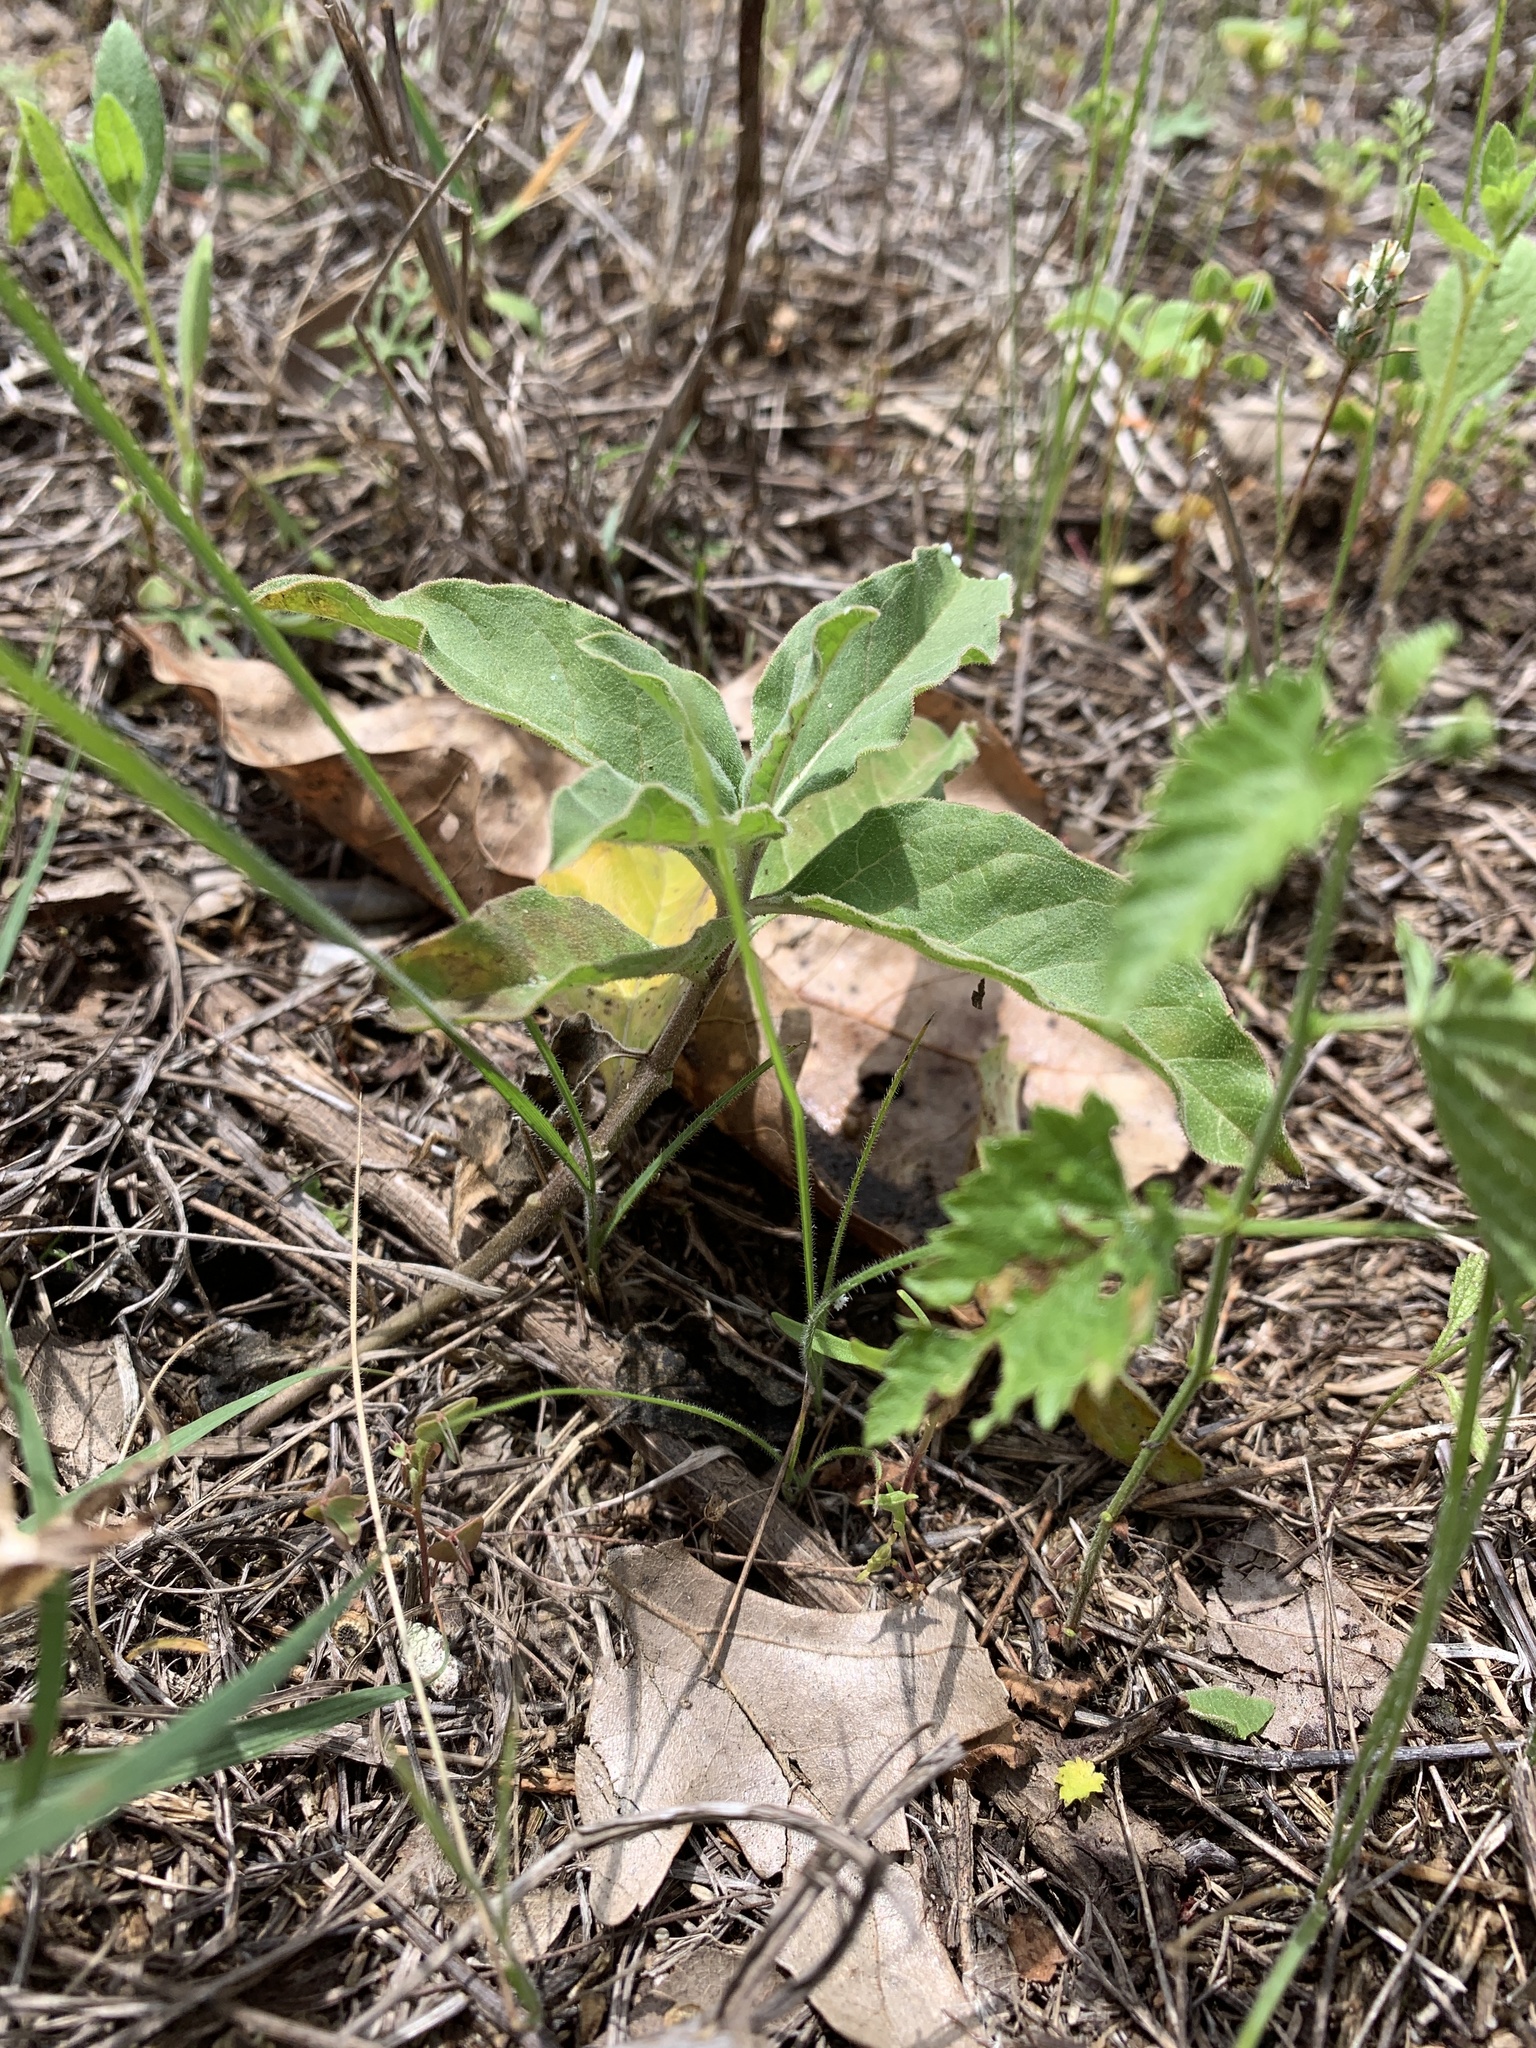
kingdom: Plantae
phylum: Tracheophyta
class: Magnoliopsida
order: Gentianales
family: Apocynaceae
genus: Asclepias
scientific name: Asclepias oenotheroides
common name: Zizotes milkweed
